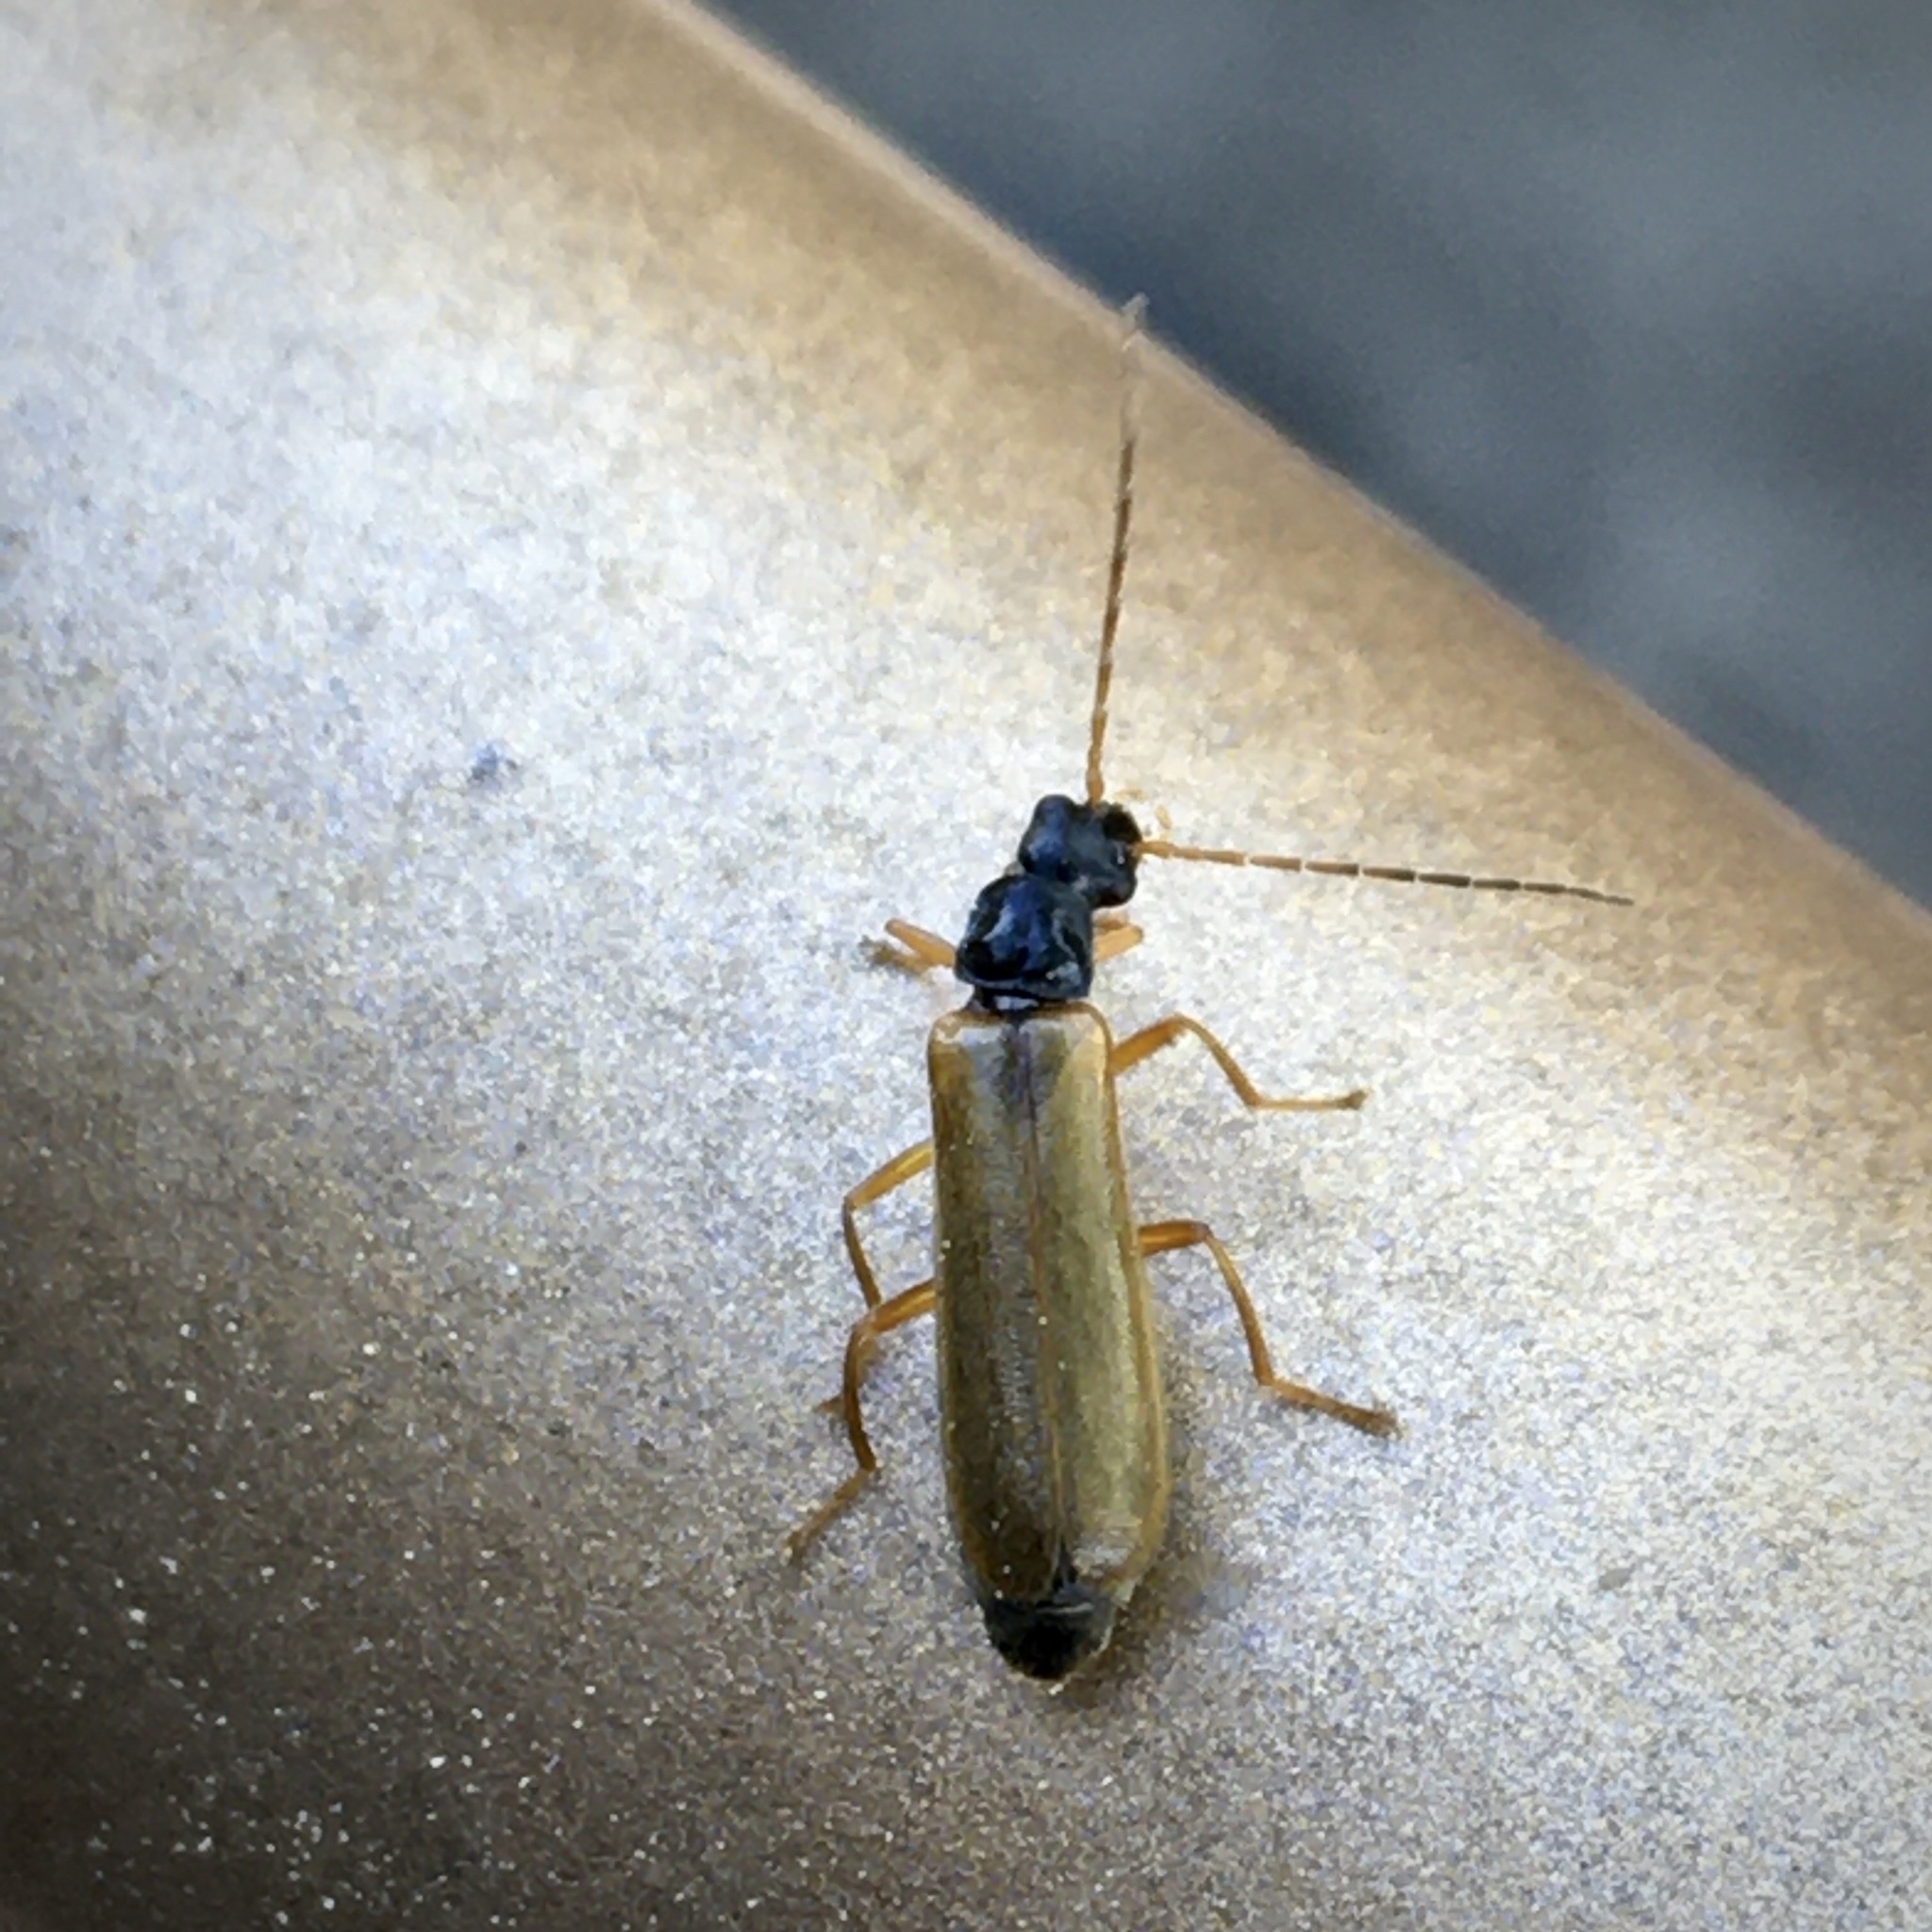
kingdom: Animalia
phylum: Arthropoda
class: Insecta
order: Coleoptera
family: Cantharidae
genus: Rhagonycha
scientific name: Rhagonycha lignosa
